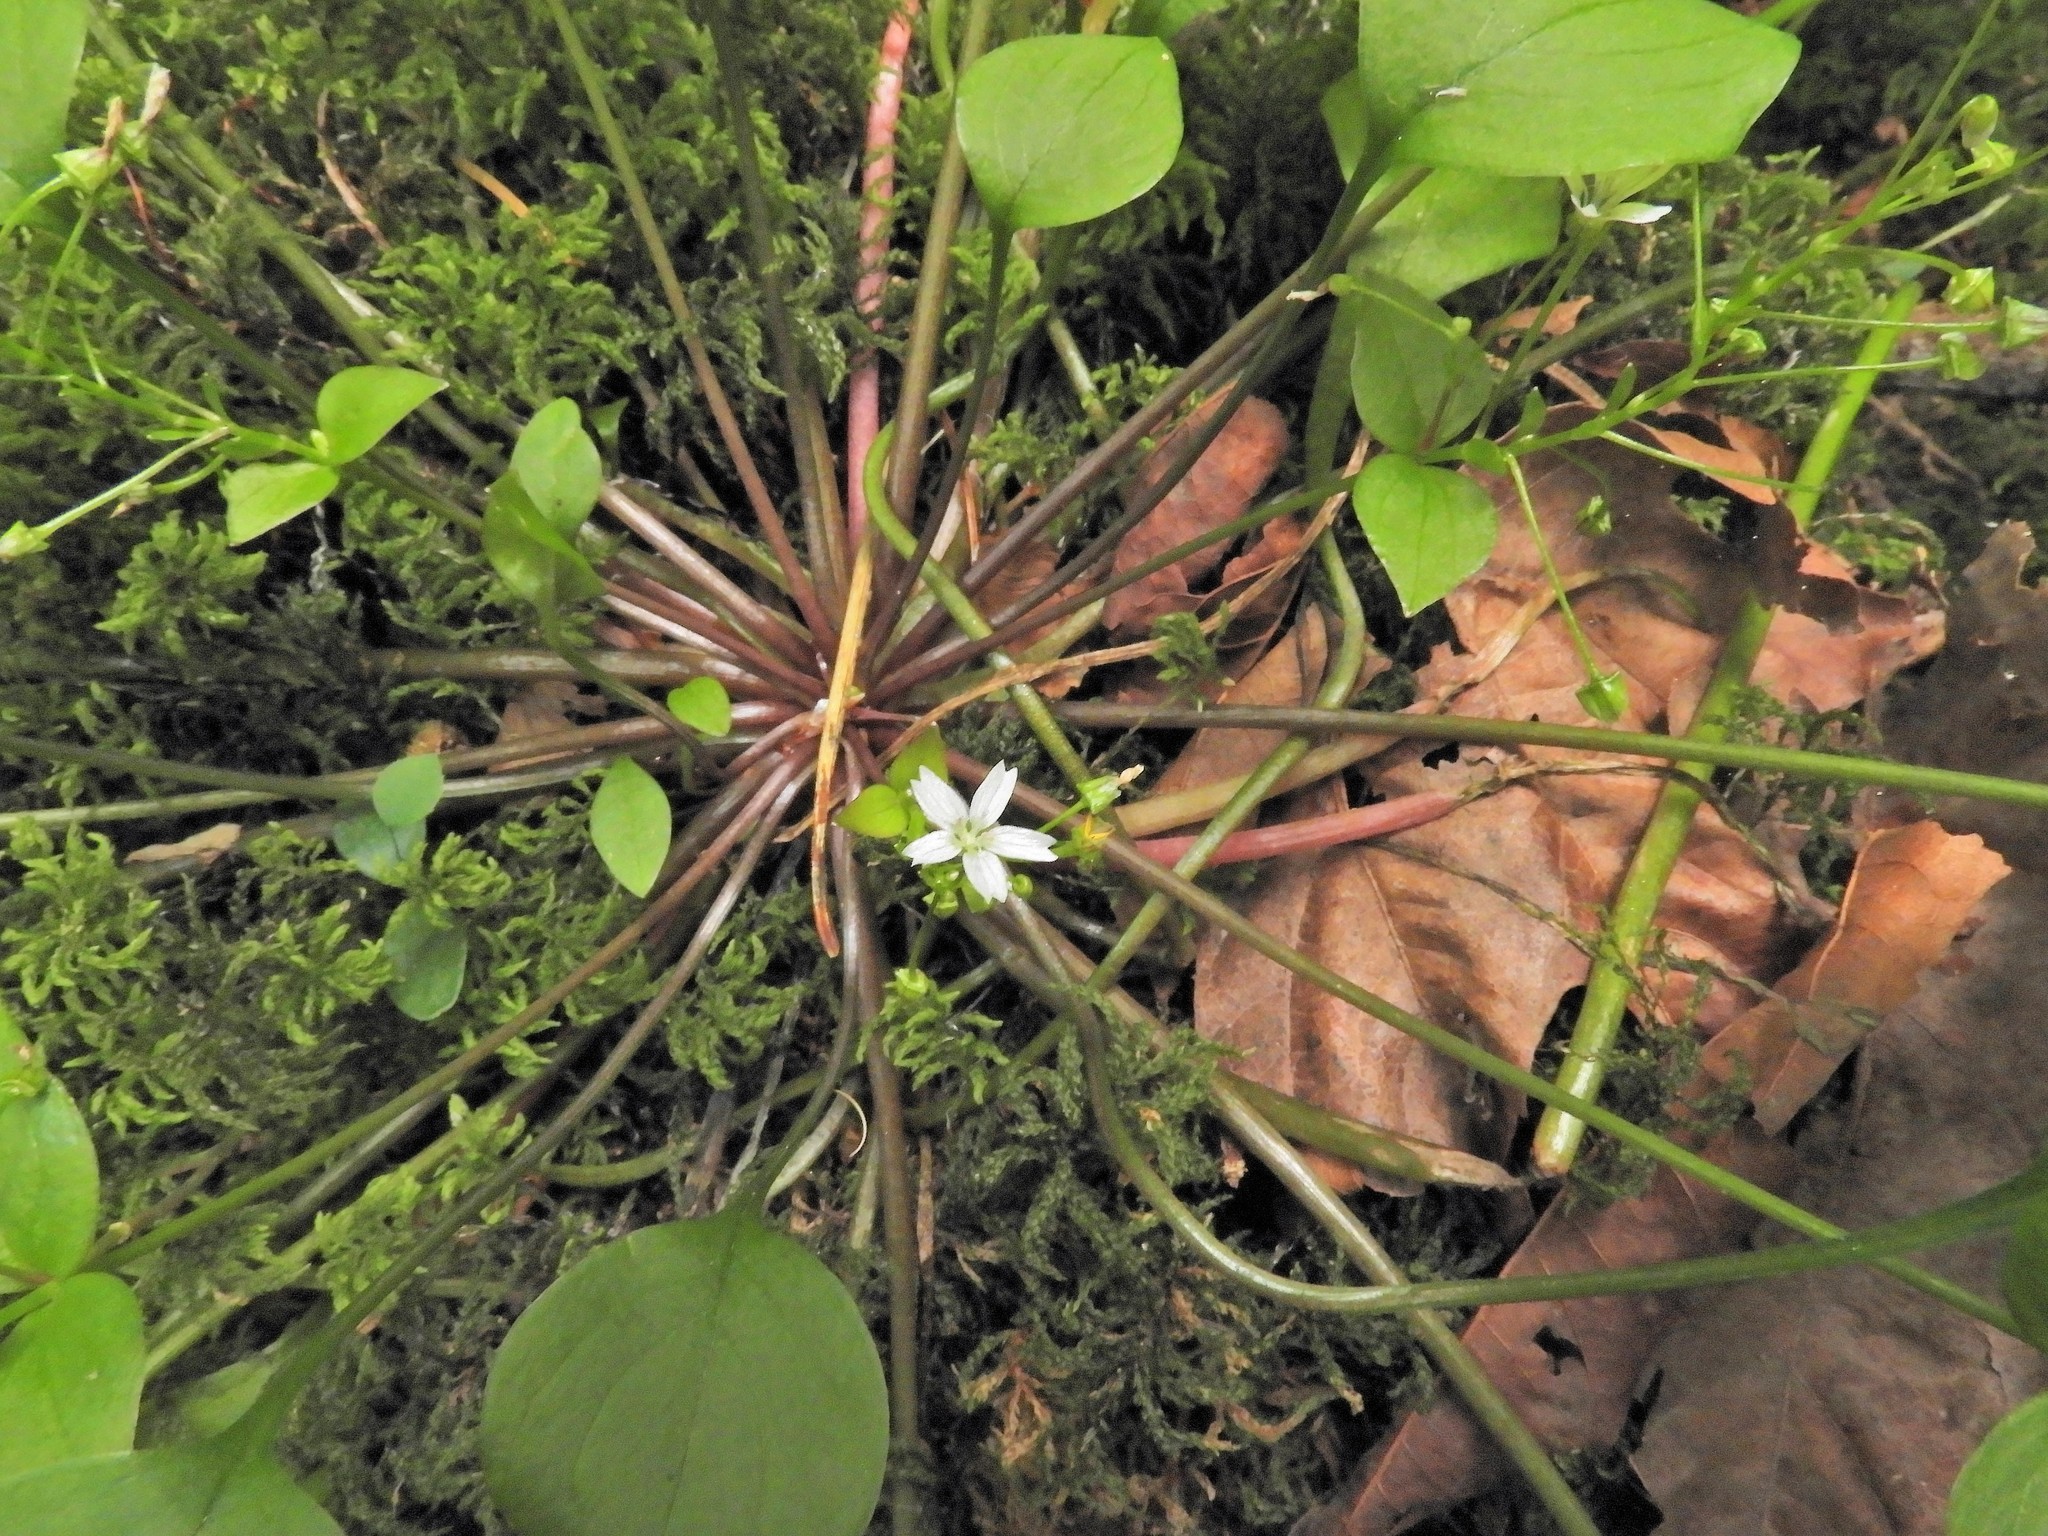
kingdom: Plantae
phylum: Tracheophyta
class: Magnoliopsida
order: Caryophyllales
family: Montiaceae
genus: Claytonia
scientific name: Claytonia sibirica
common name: Pink purslane
